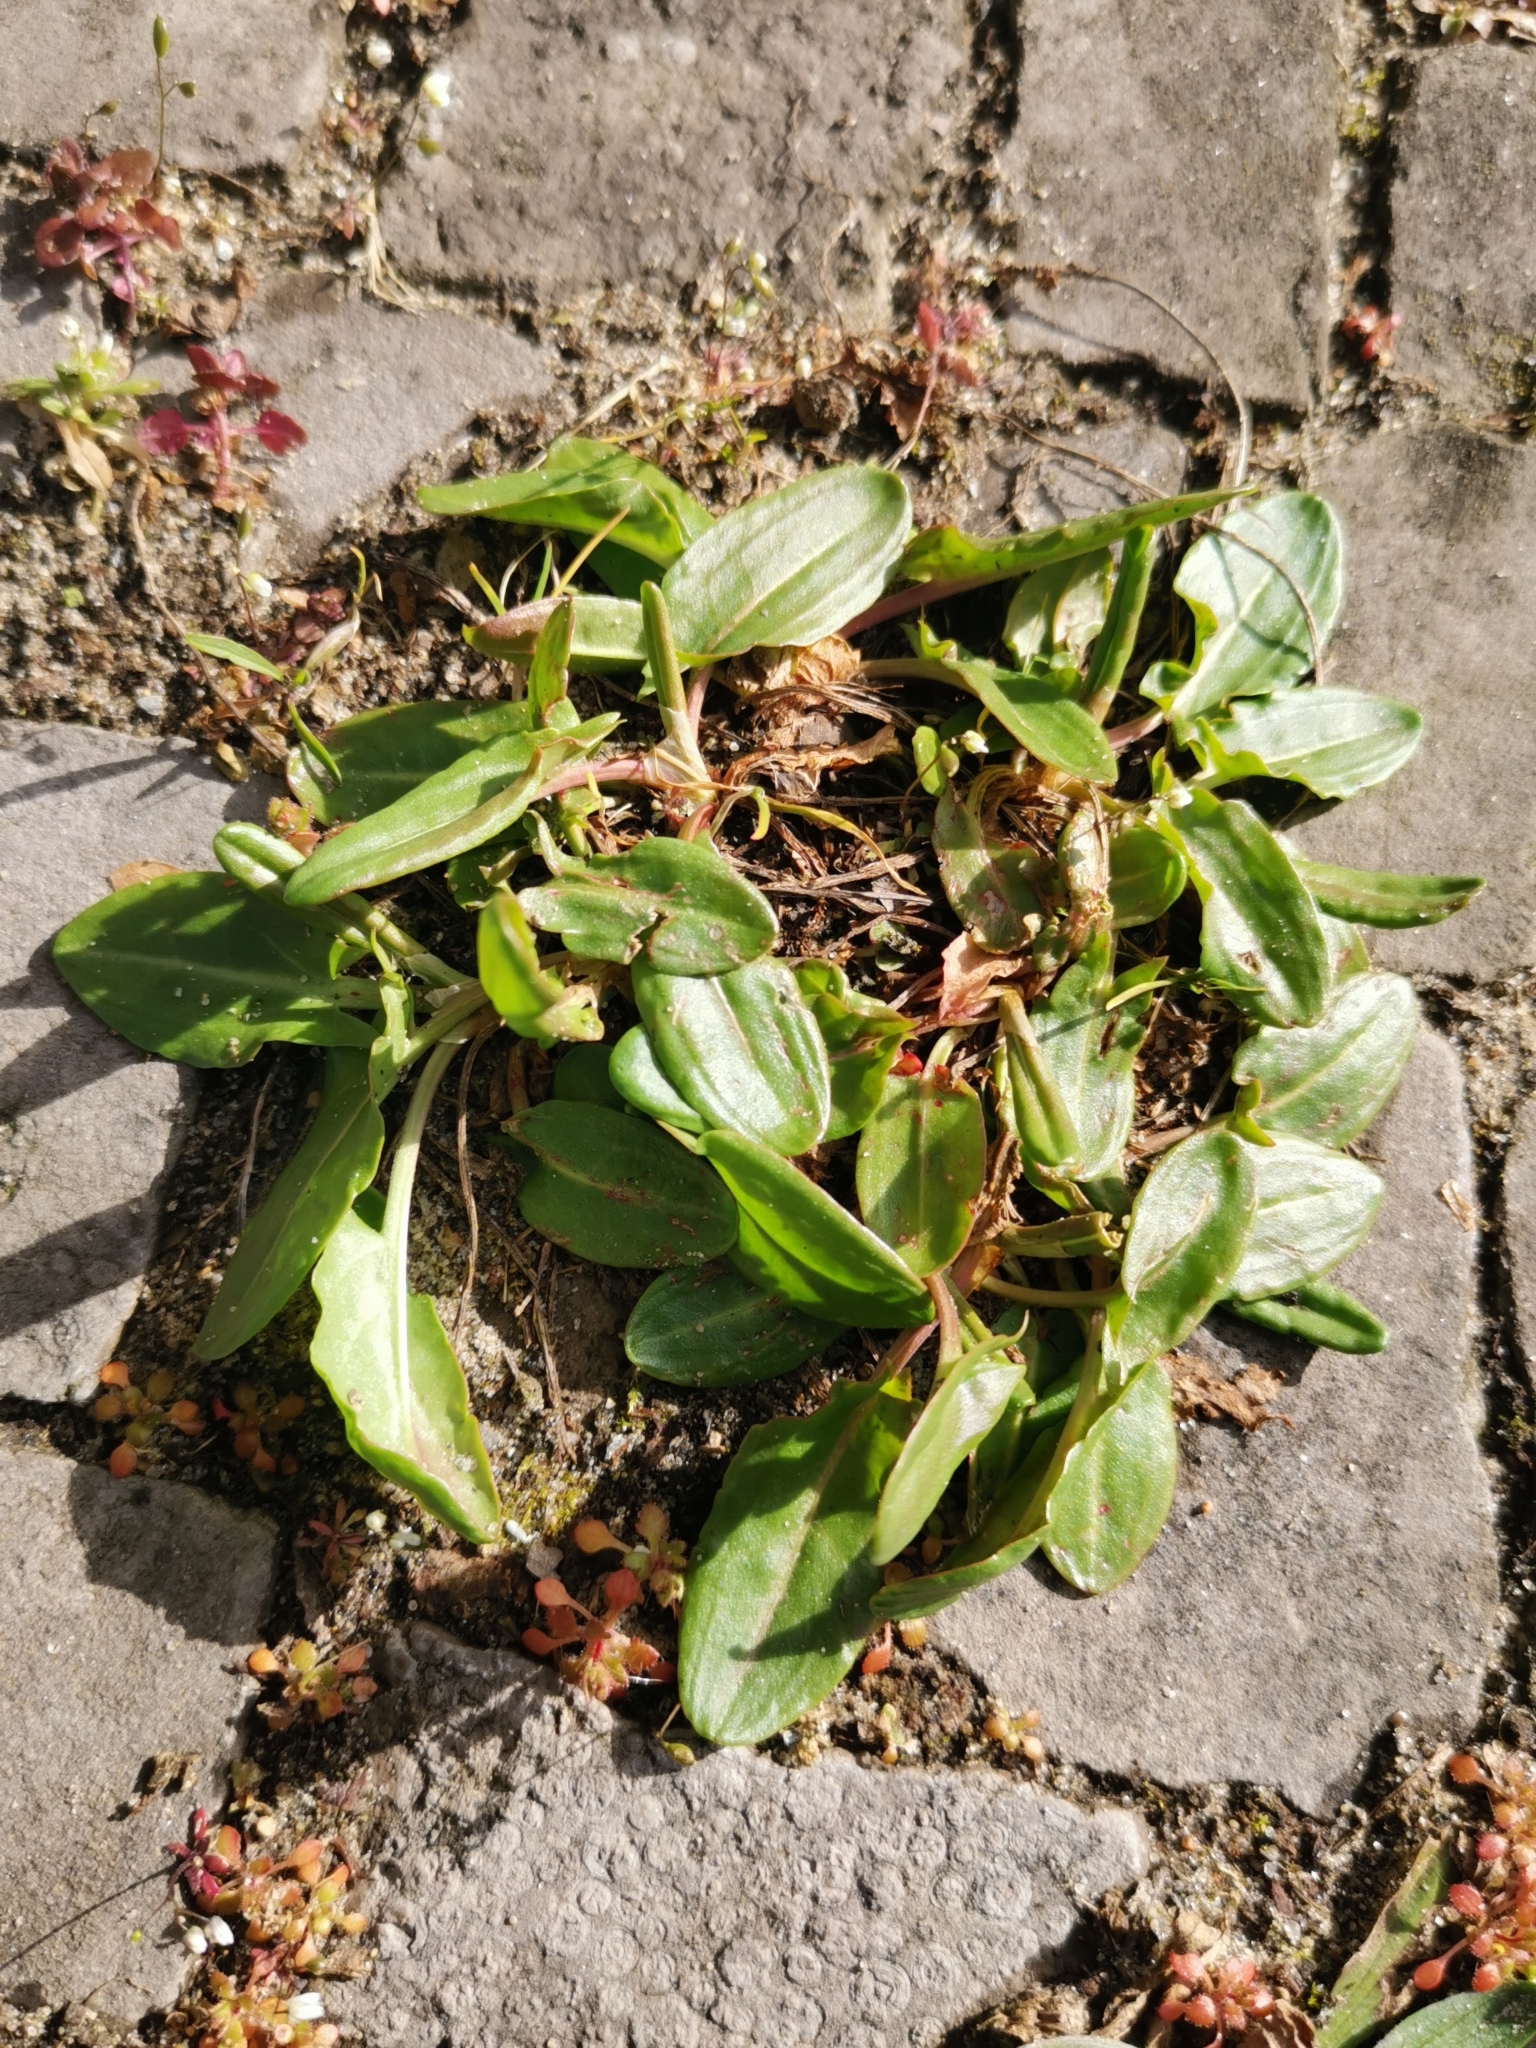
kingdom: Plantae
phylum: Tracheophyta
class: Magnoliopsida
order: Caryophyllales
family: Polygonaceae
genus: Rumex
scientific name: Rumex acetosa
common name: Garden sorrel
